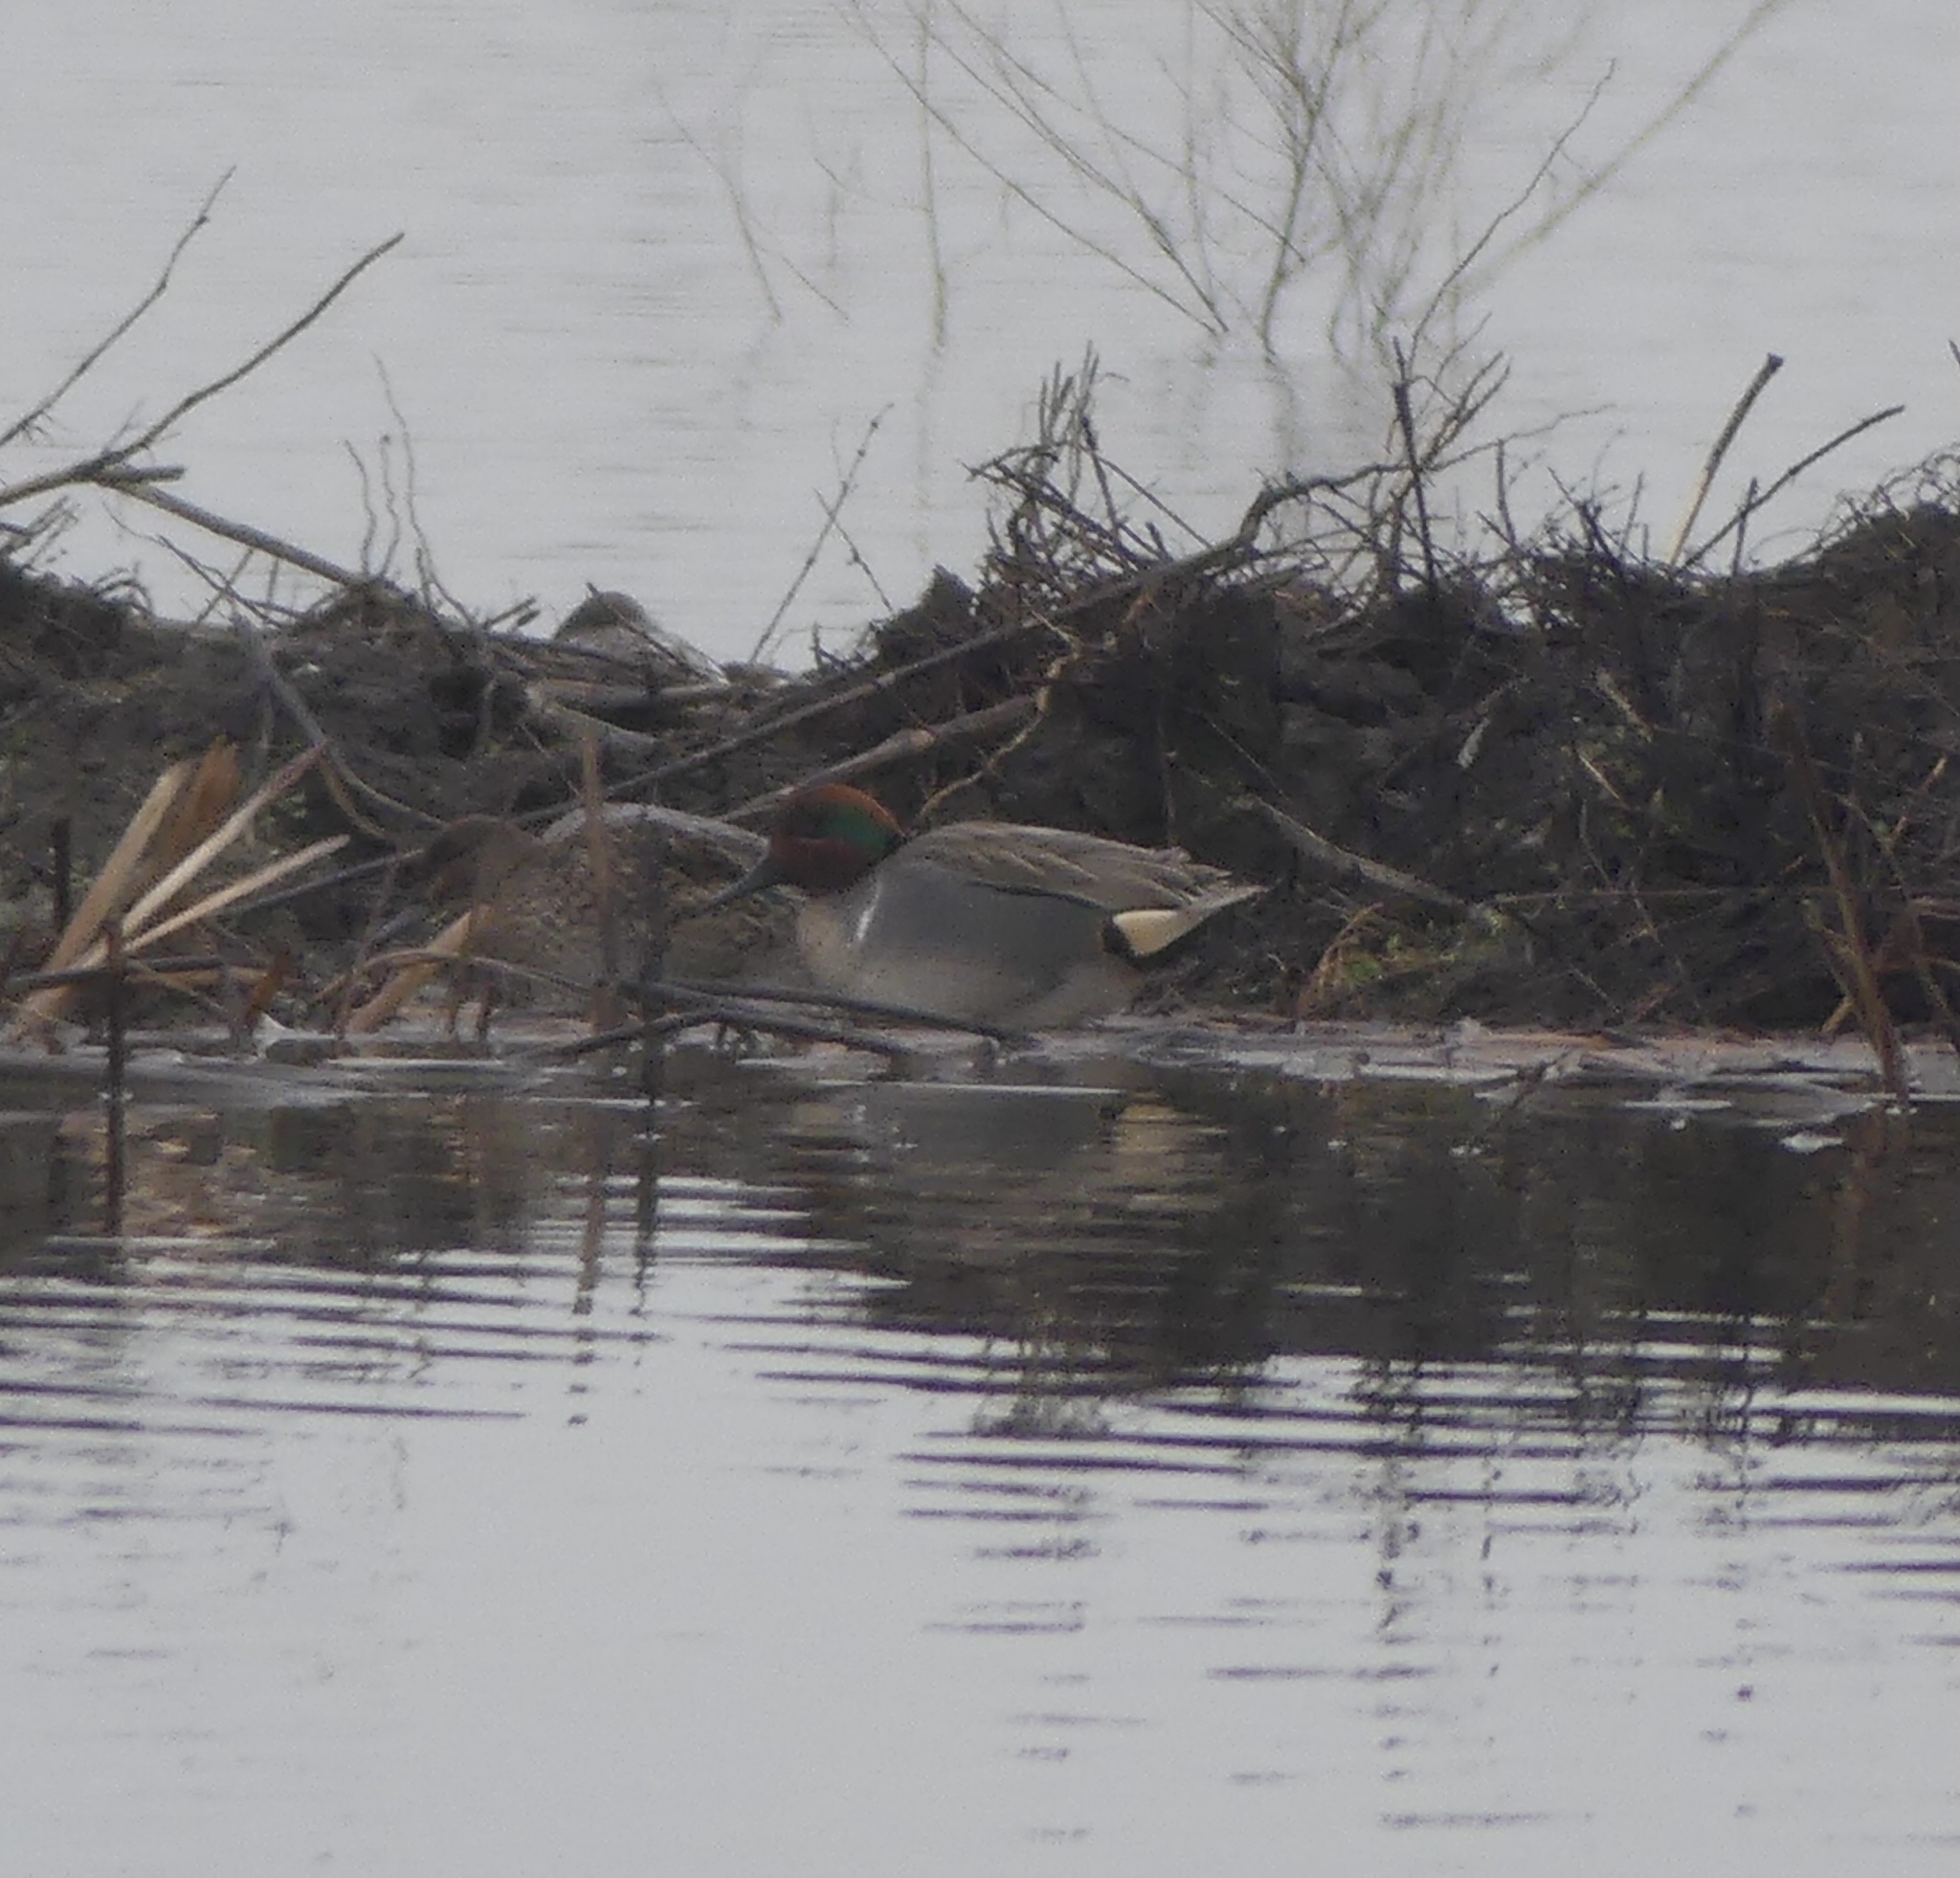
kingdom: Animalia
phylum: Chordata
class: Aves
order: Anseriformes
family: Anatidae
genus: Anas
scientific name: Anas crecca
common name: Eurasian teal
